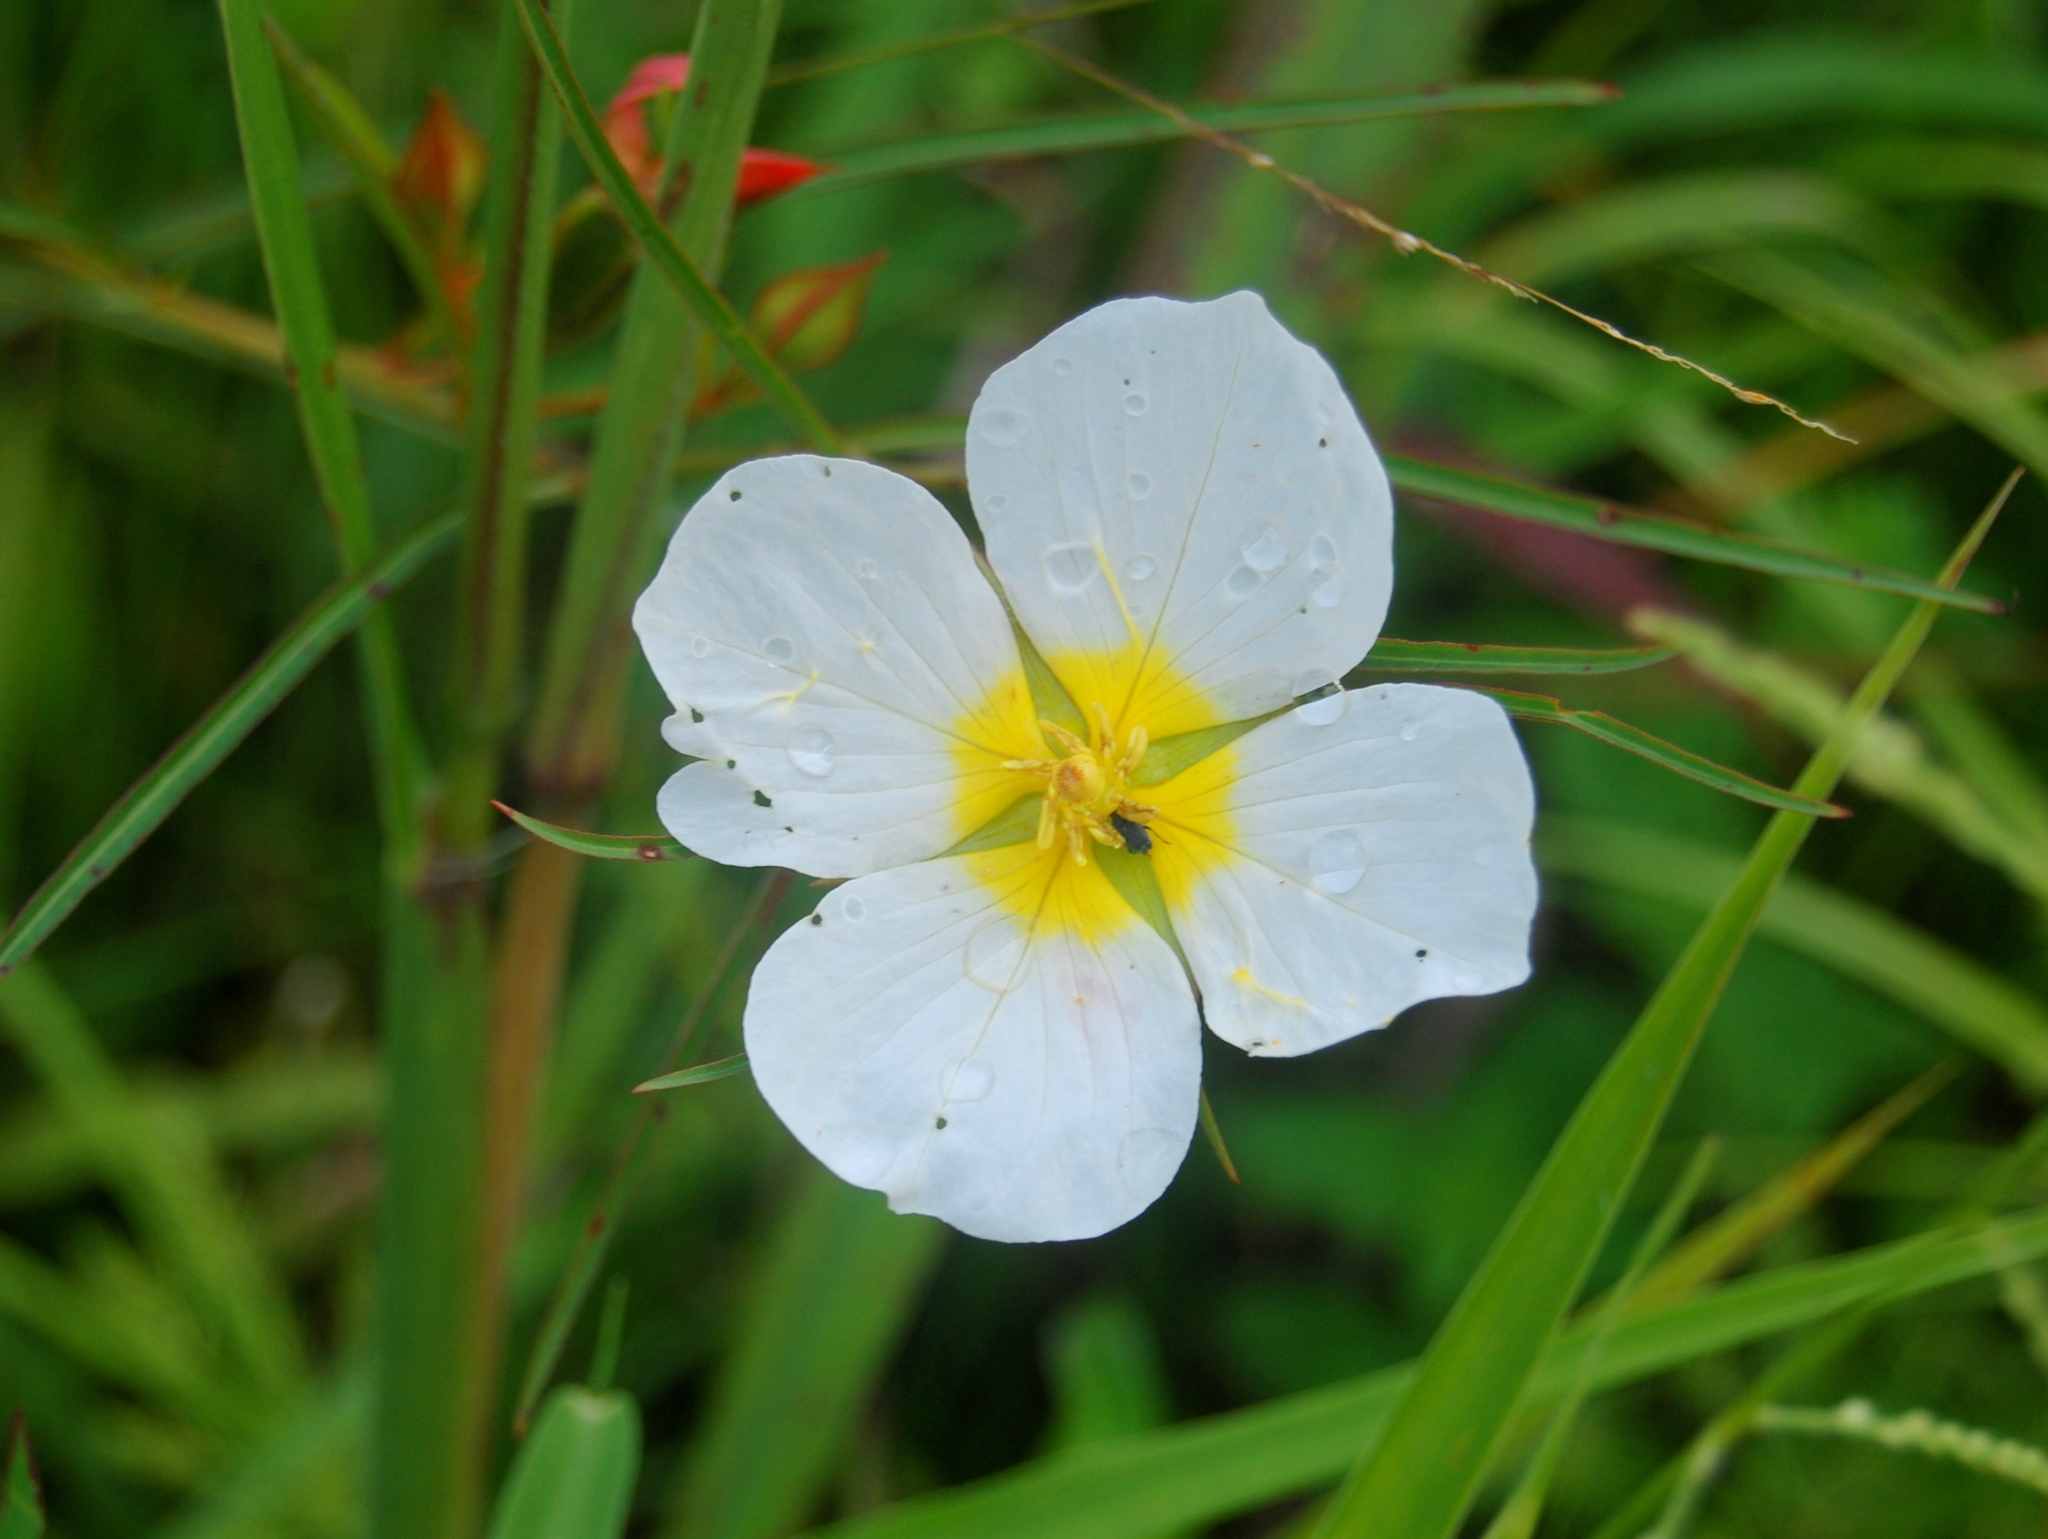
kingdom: Plantae
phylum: Tracheophyta
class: Magnoliopsida
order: Myrtales
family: Onagraceae
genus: Ludwigia
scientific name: Ludwigia major
